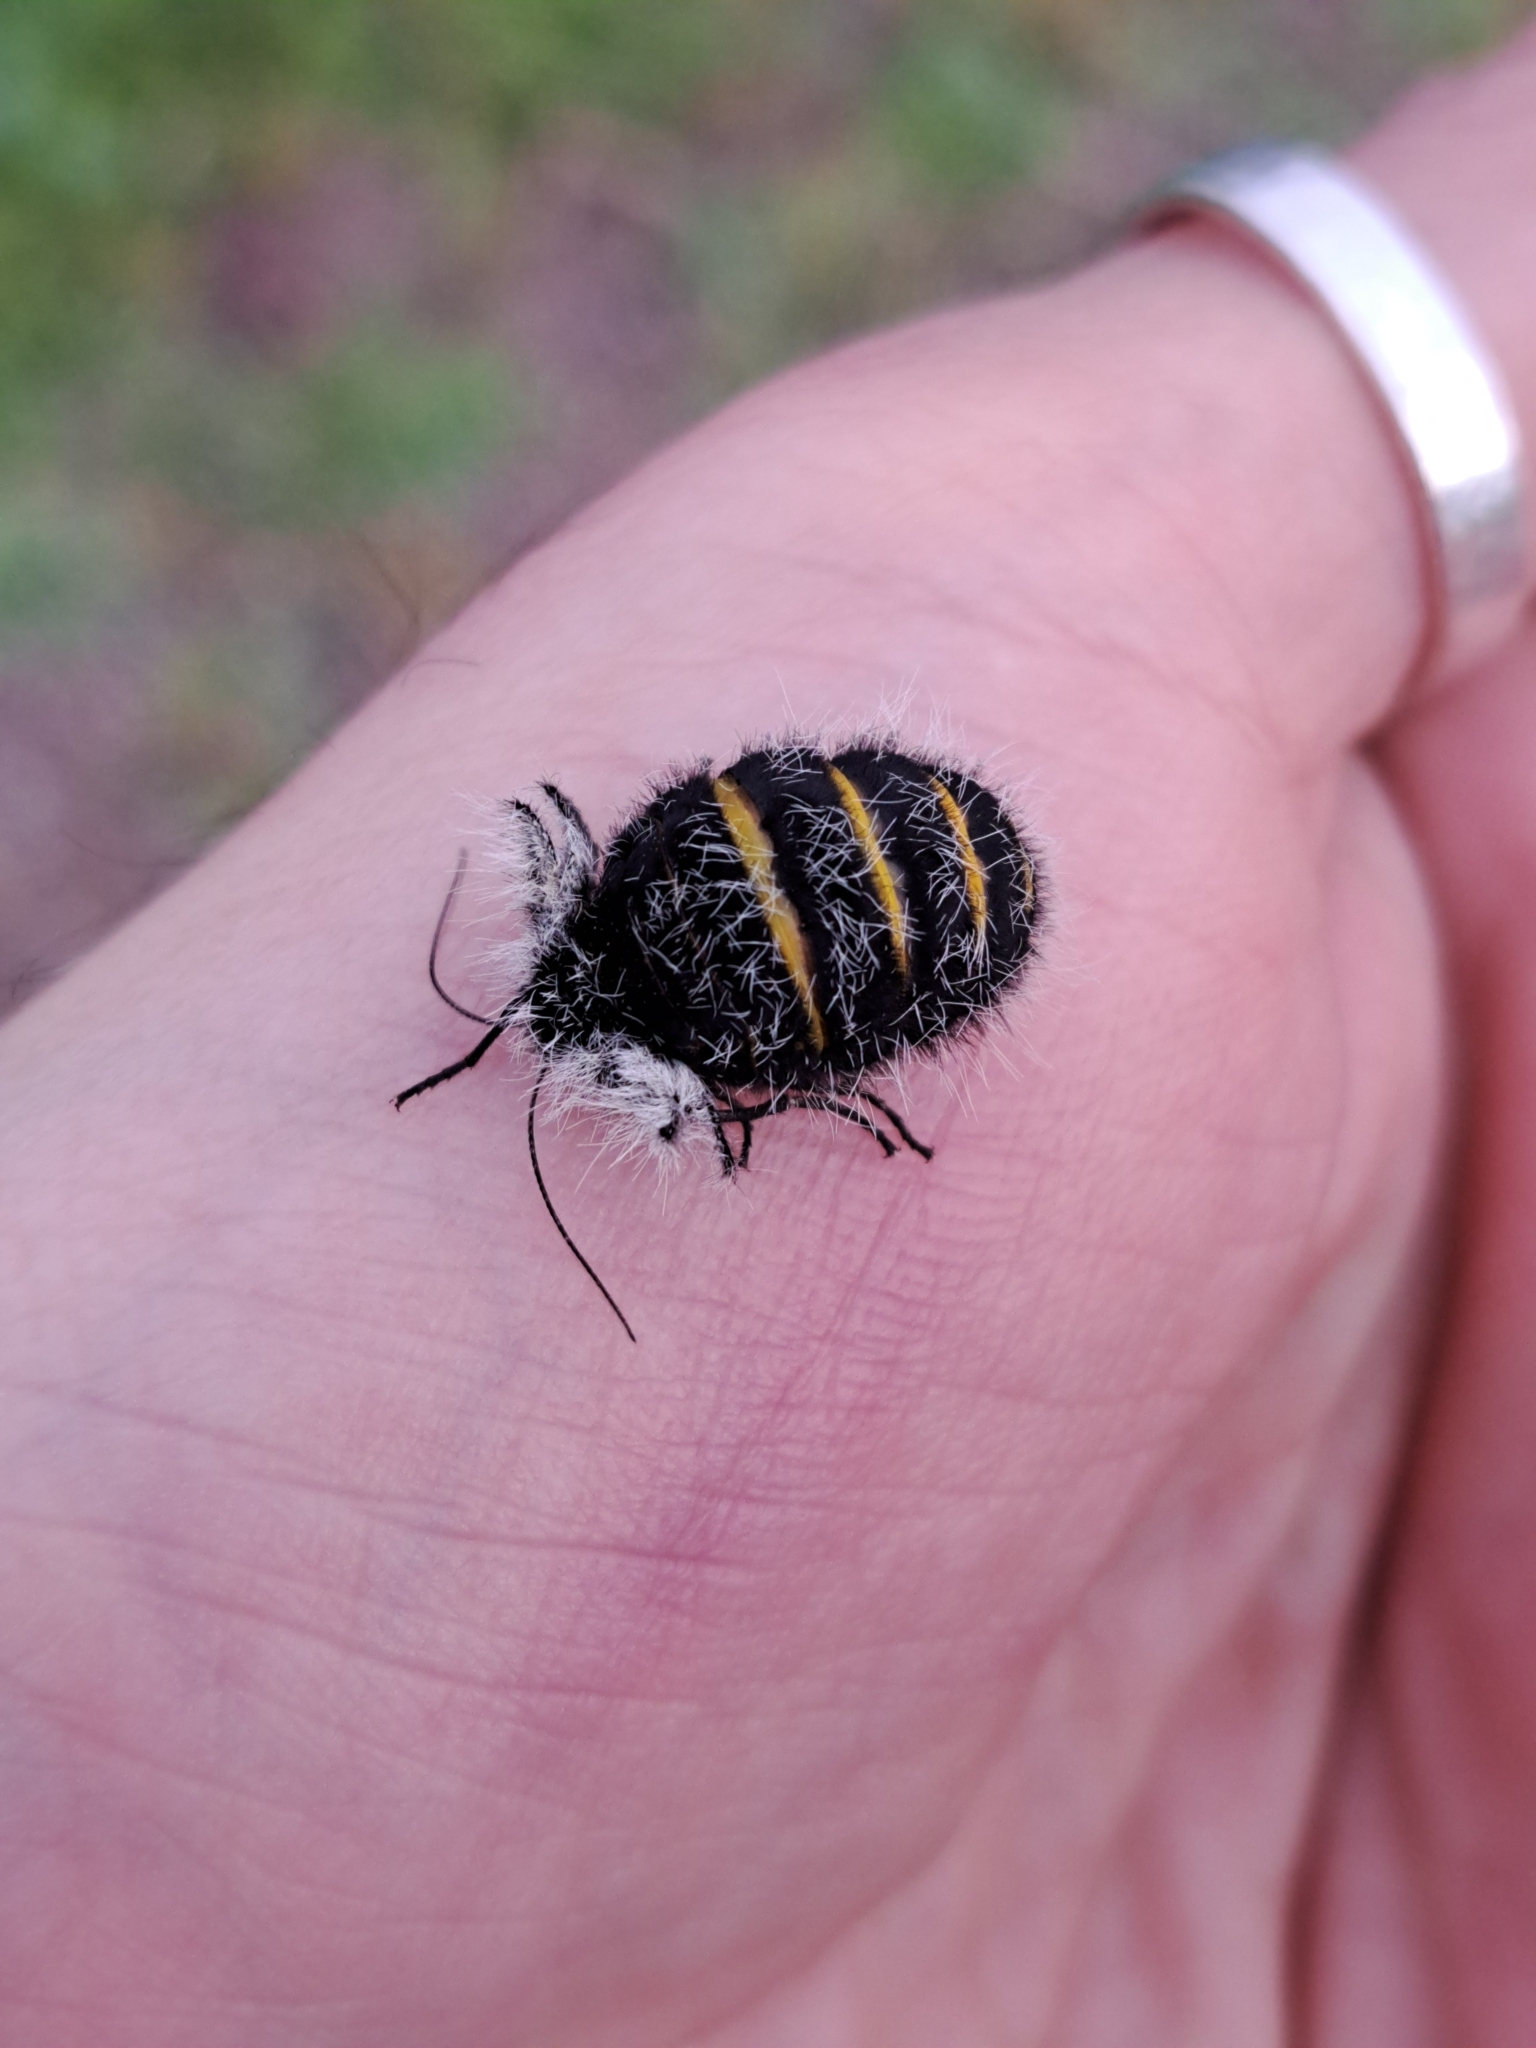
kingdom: Animalia
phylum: Arthropoda
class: Insecta
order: Lepidoptera
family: Geometridae
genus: Lycia
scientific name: Lycia florentina
